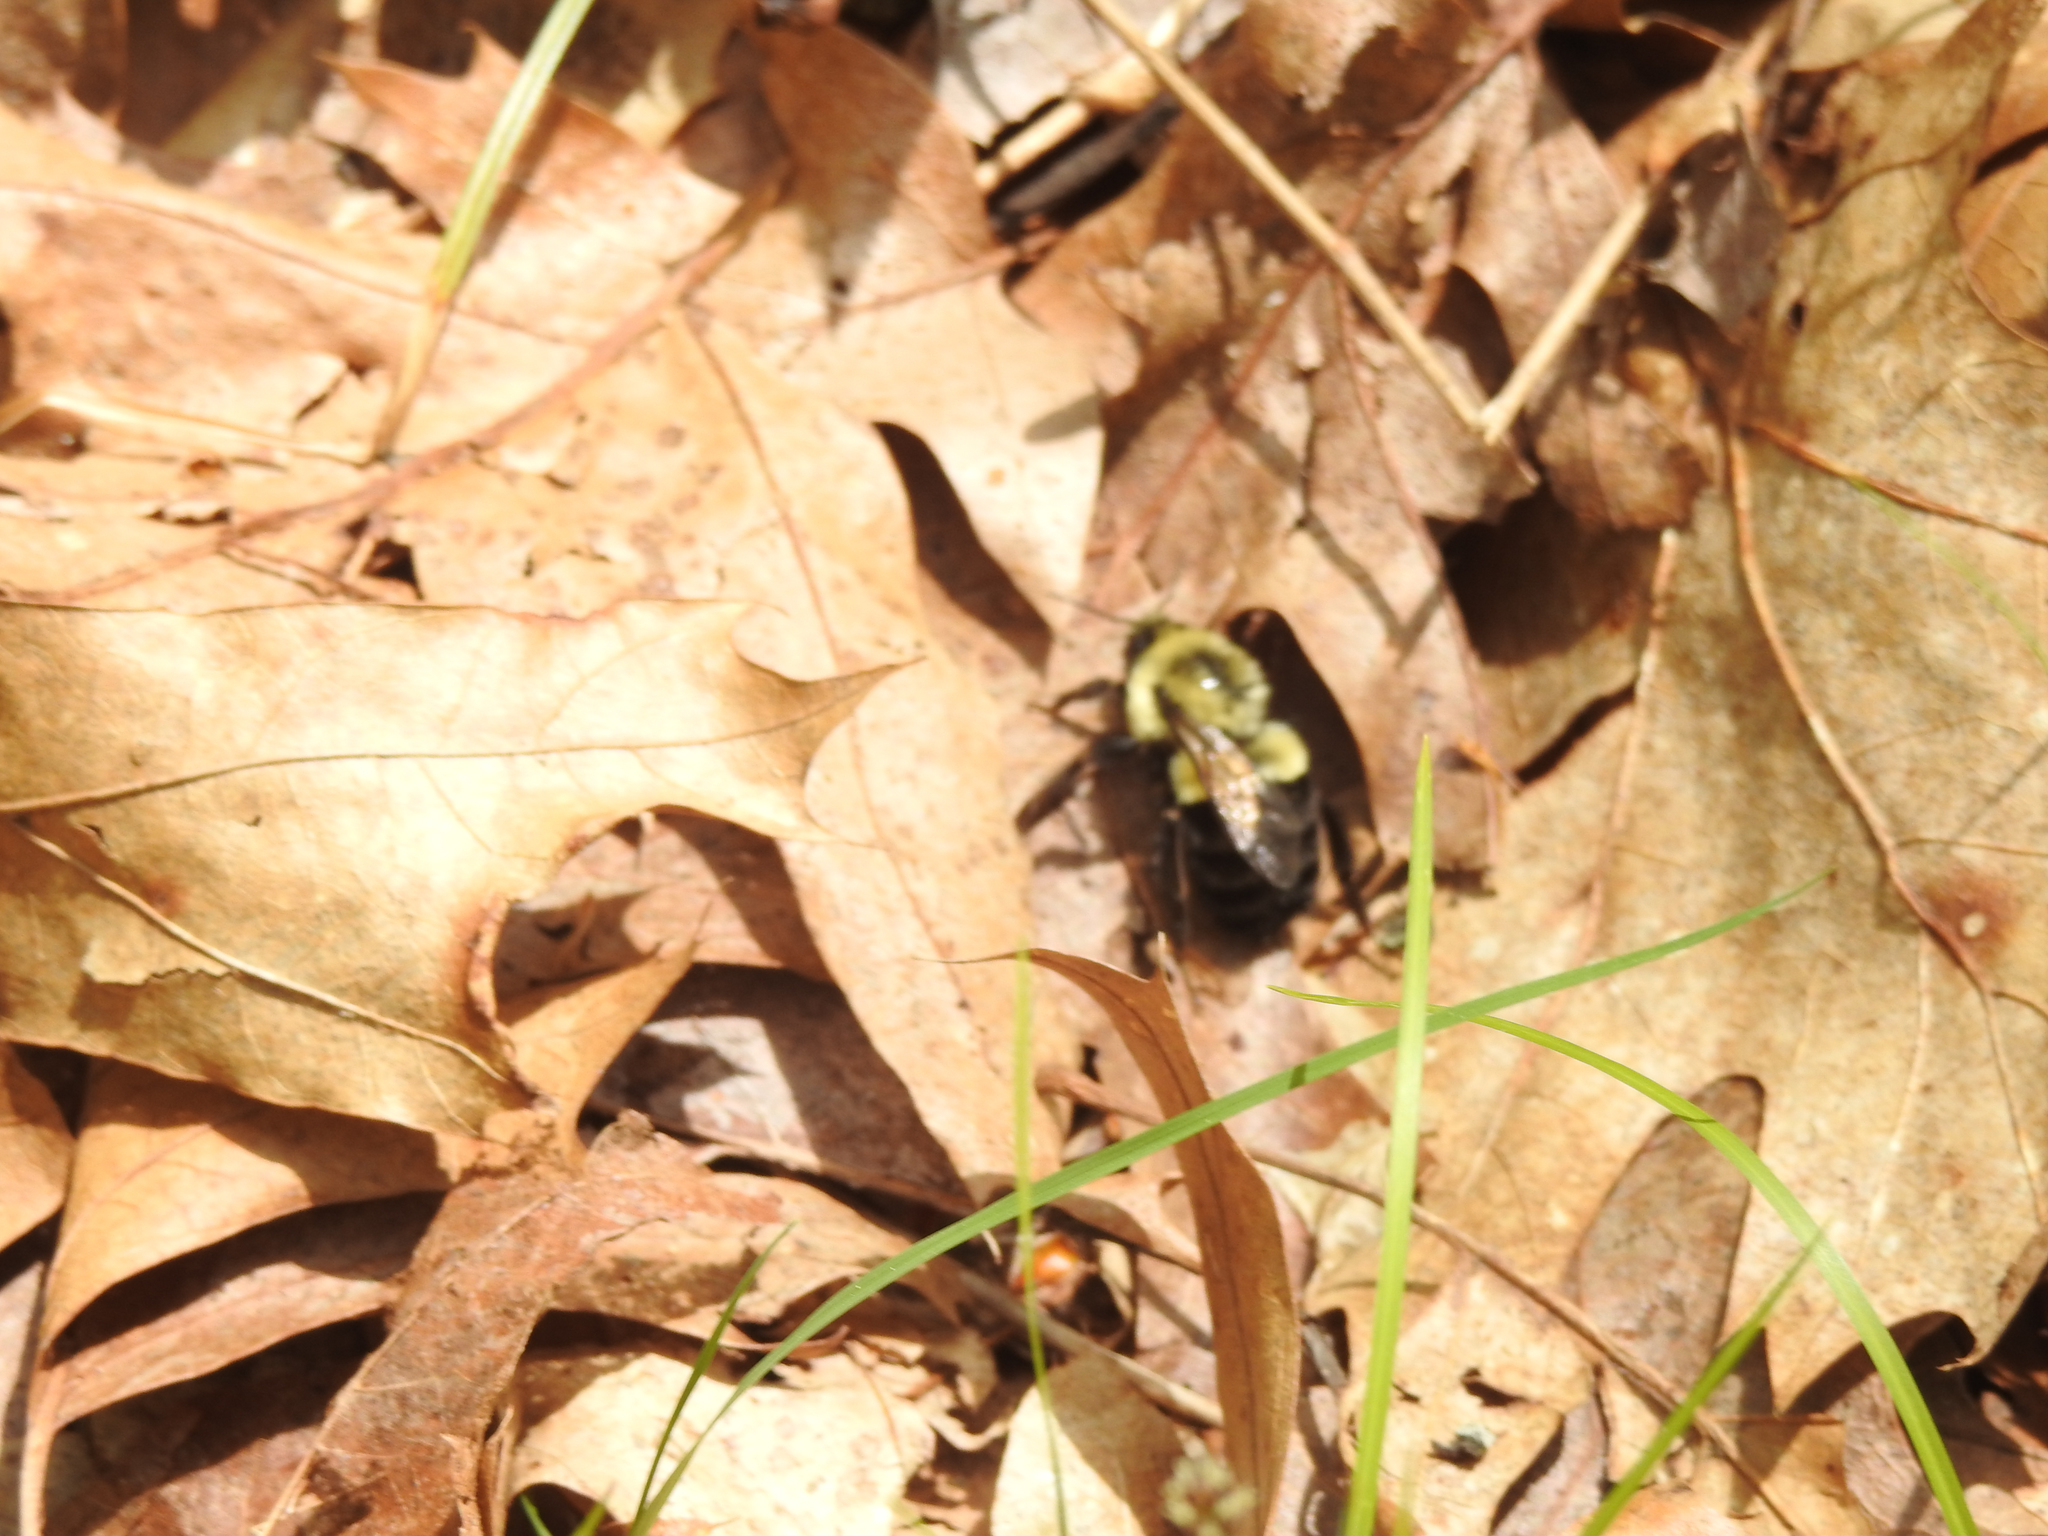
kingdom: Animalia
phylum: Arthropoda
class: Insecta
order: Hymenoptera
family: Apidae
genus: Bombus
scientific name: Bombus impatiens
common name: Common eastern bumble bee
